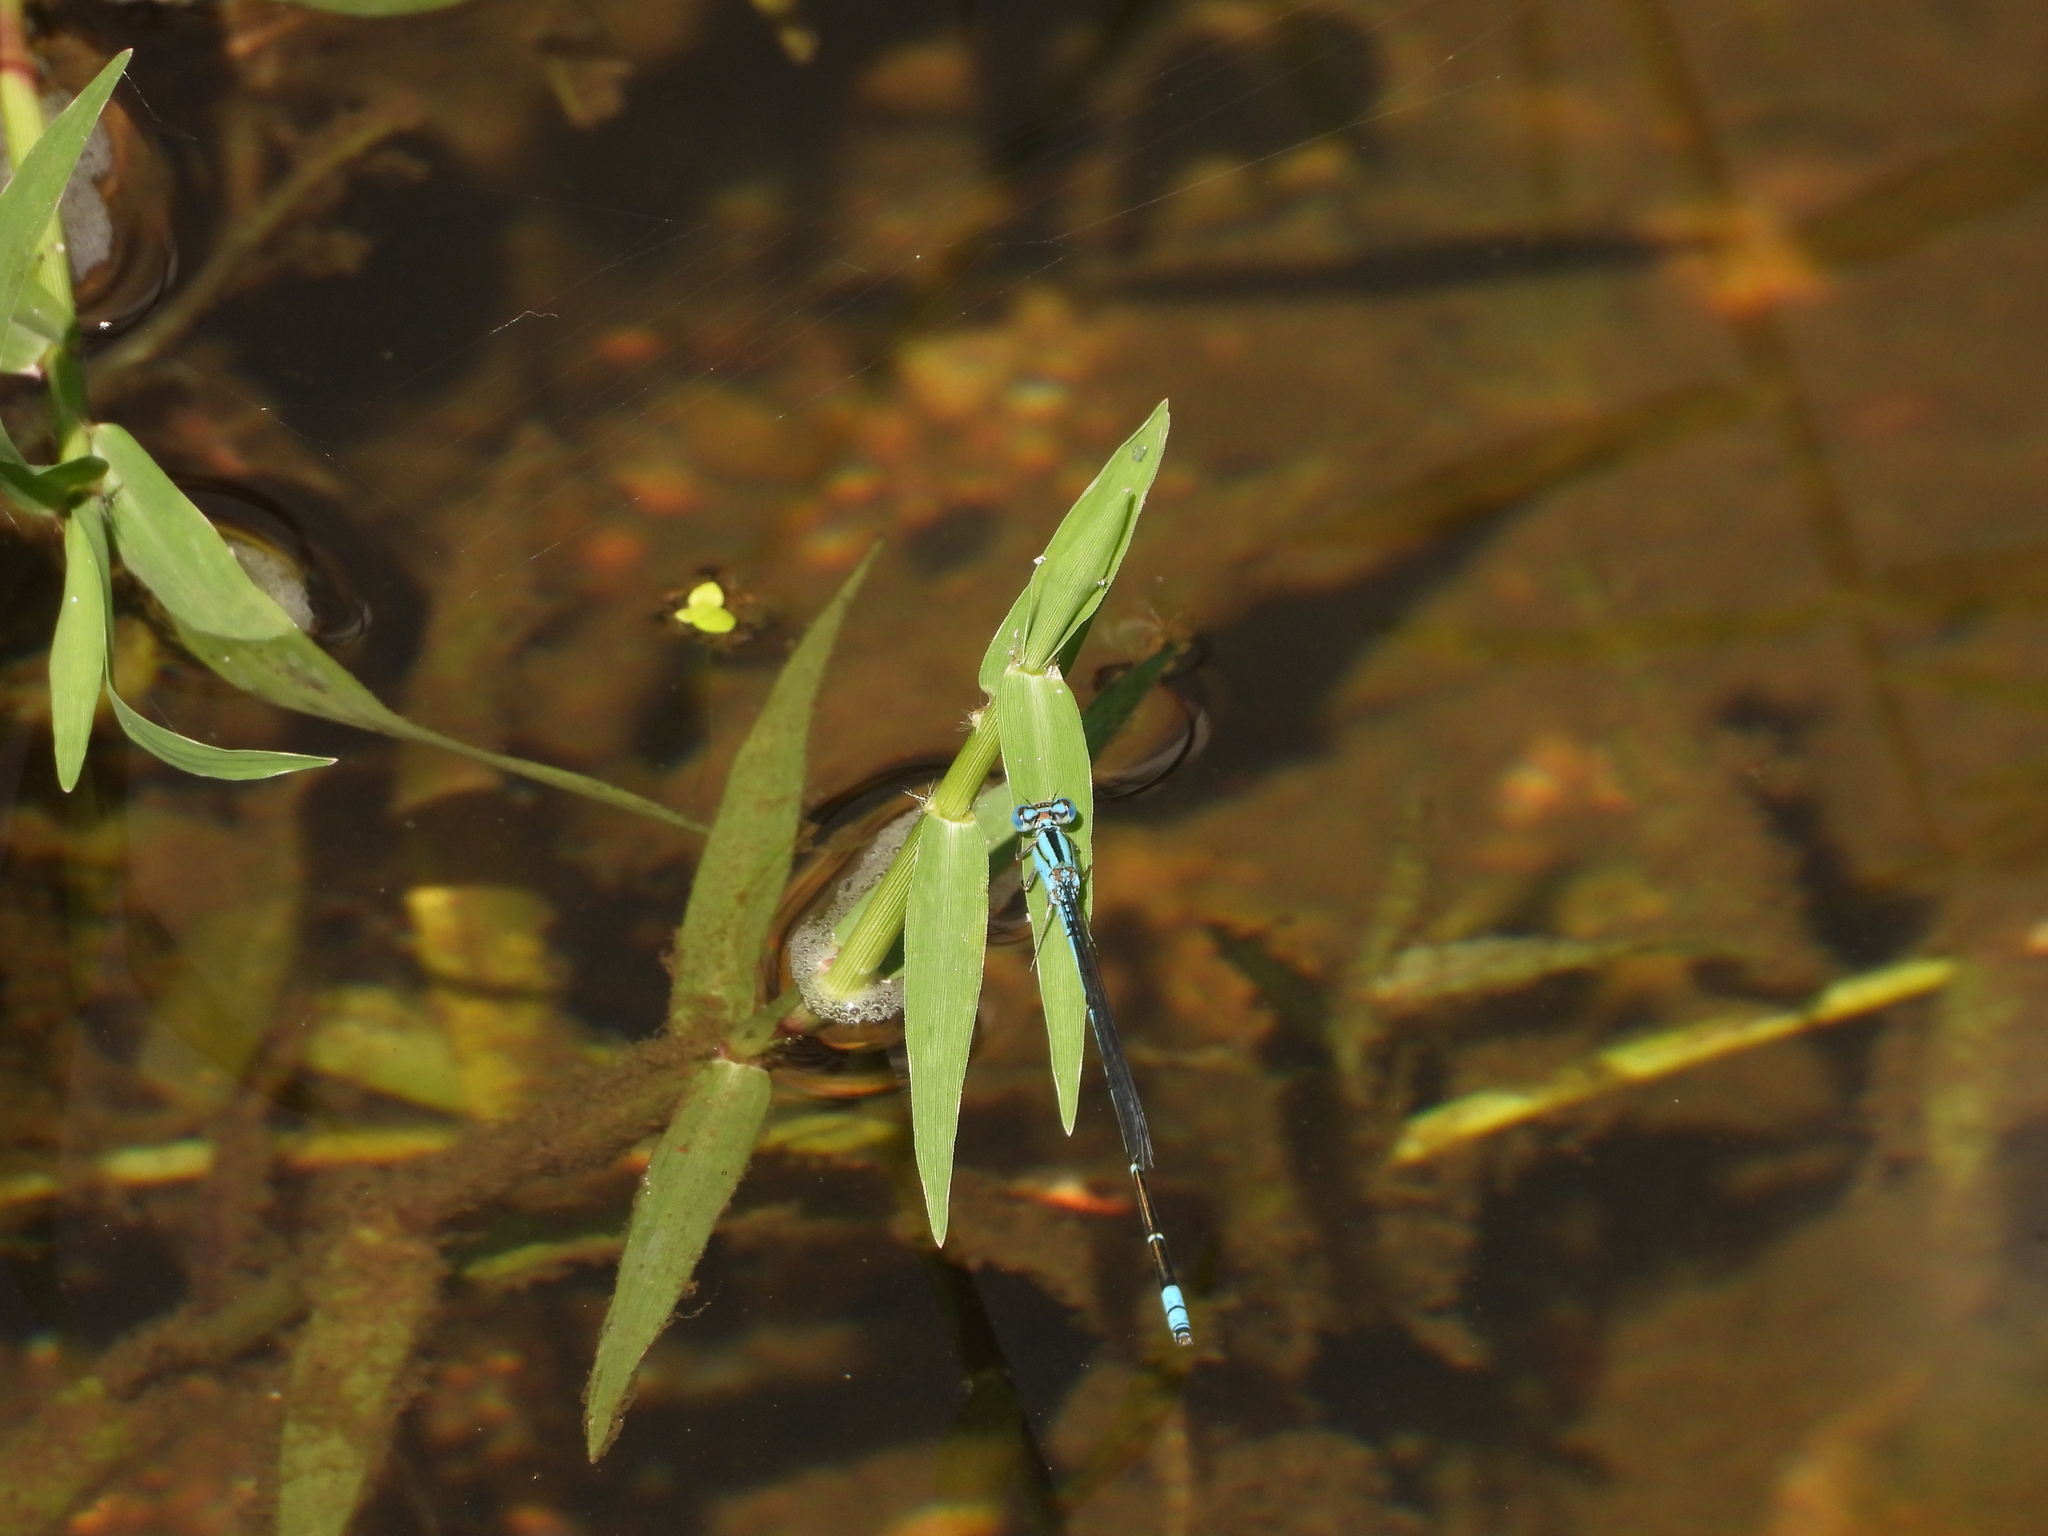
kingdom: Animalia
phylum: Arthropoda
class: Insecta
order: Odonata
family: Coenagrionidae
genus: Pseudagrion
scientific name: Pseudagrion microcephalum
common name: Blue riverdamsel
